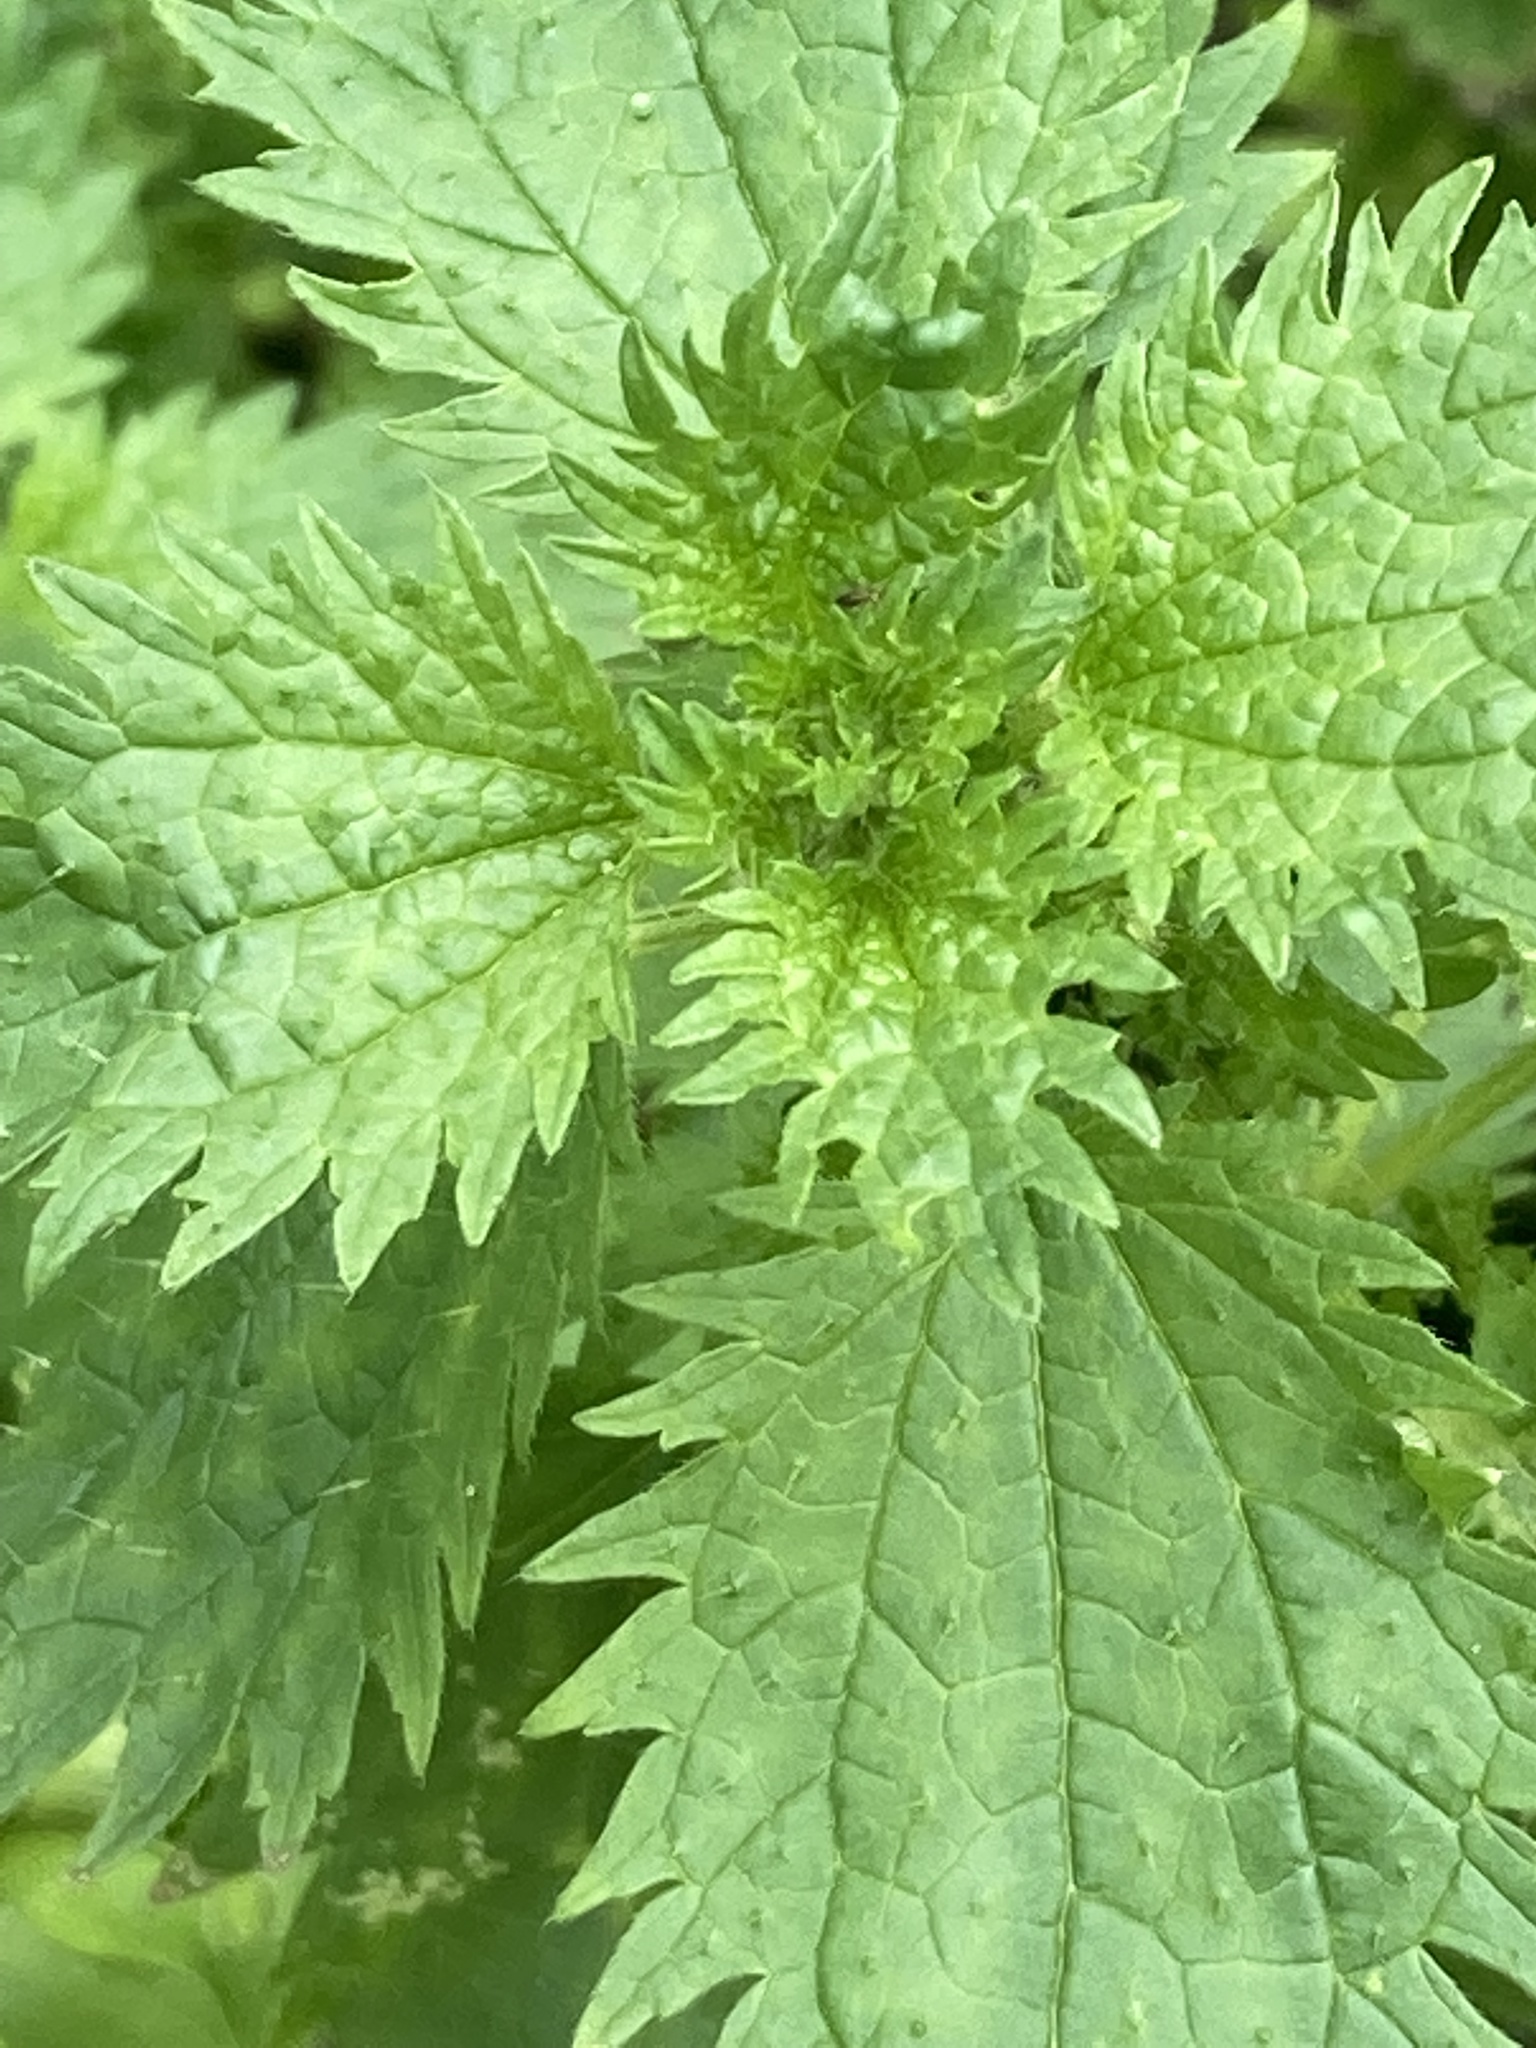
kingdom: Plantae
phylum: Tracheophyta
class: Magnoliopsida
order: Rosales
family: Urticaceae
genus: Urtica
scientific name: Urtica urens
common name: Dwarf nettle
